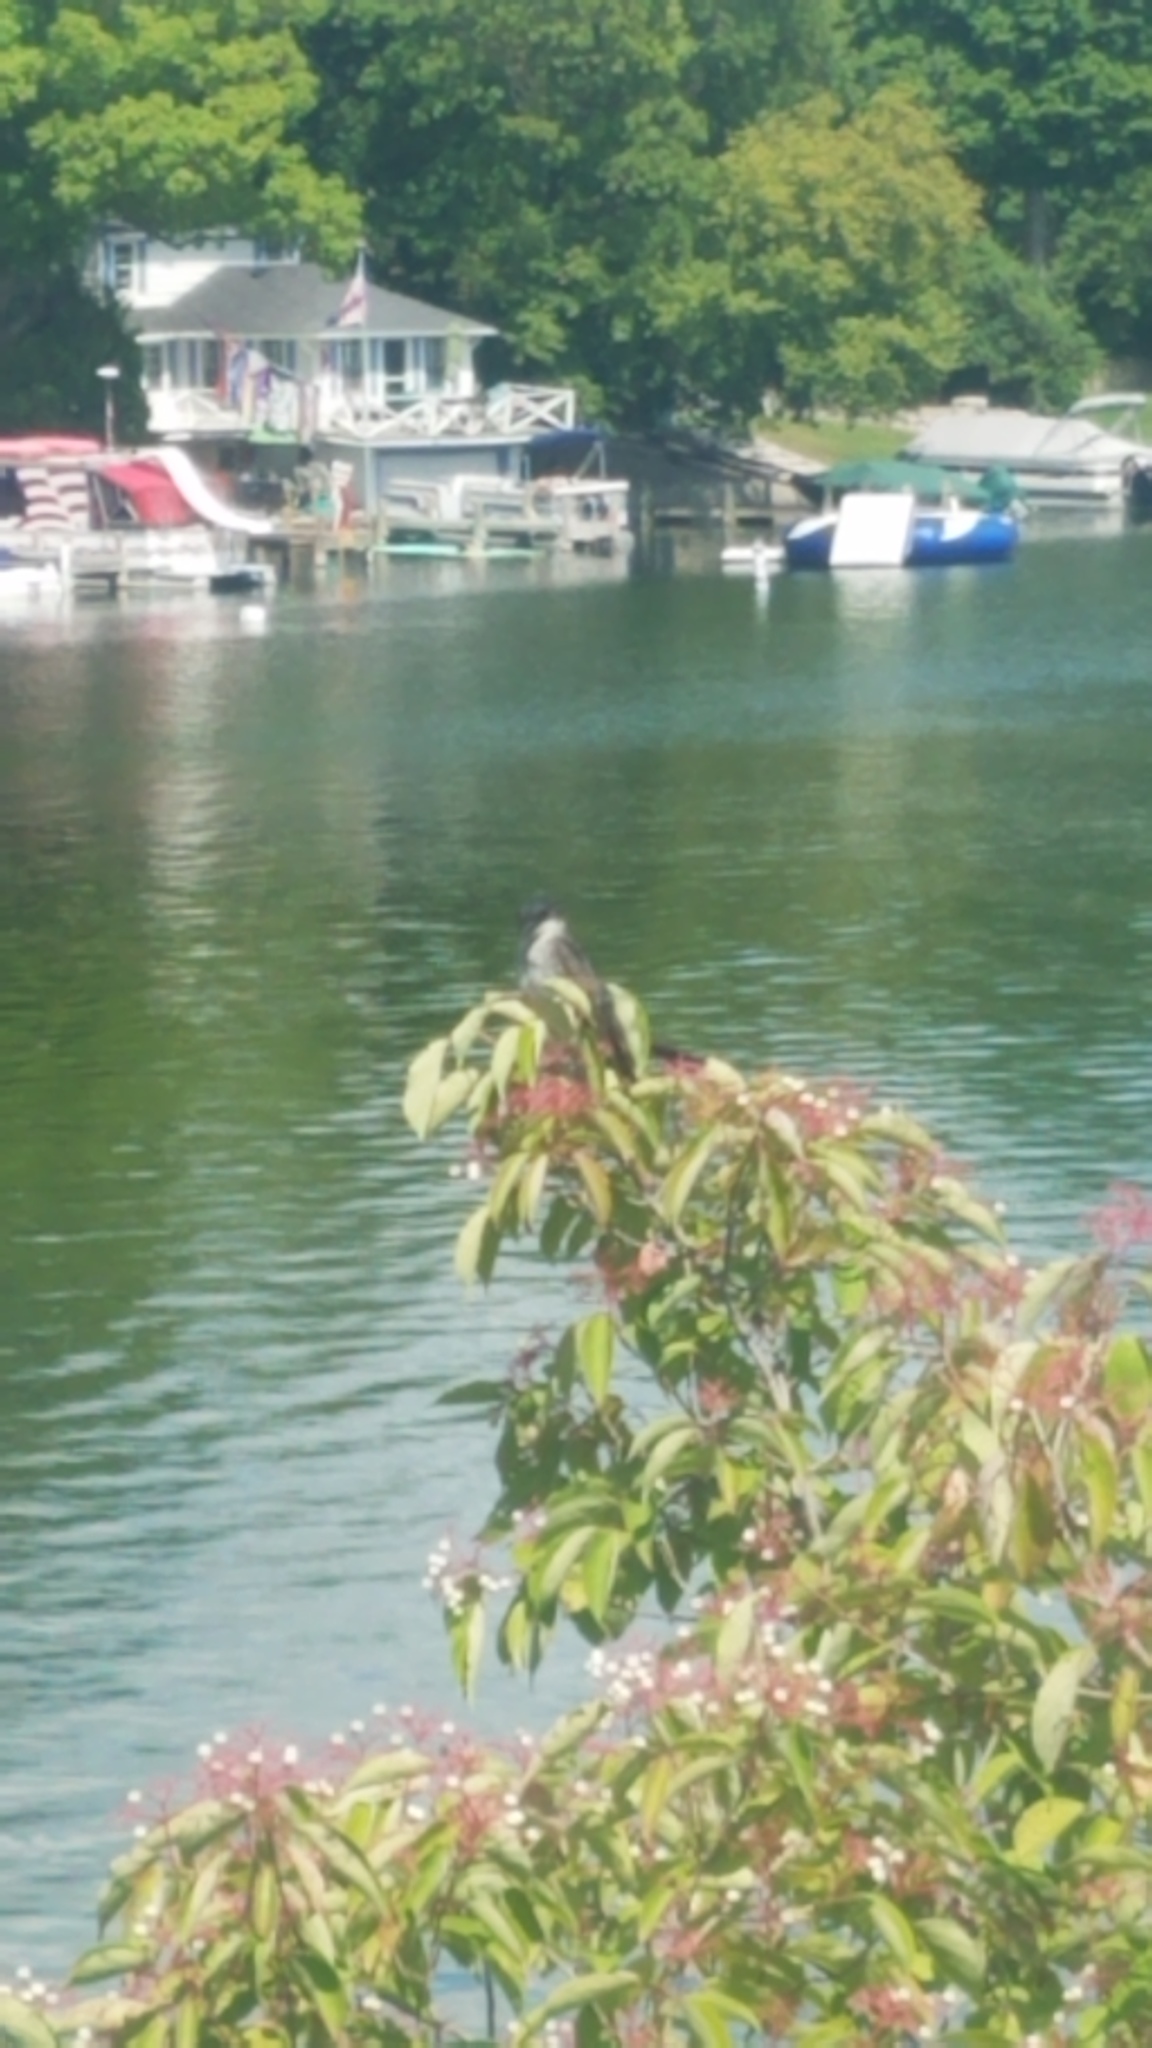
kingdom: Animalia
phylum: Chordata
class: Aves
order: Passeriformes
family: Tyrannidae
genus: Tyrannus
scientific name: Tyrannus tyrannus
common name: Eastern kingbird
